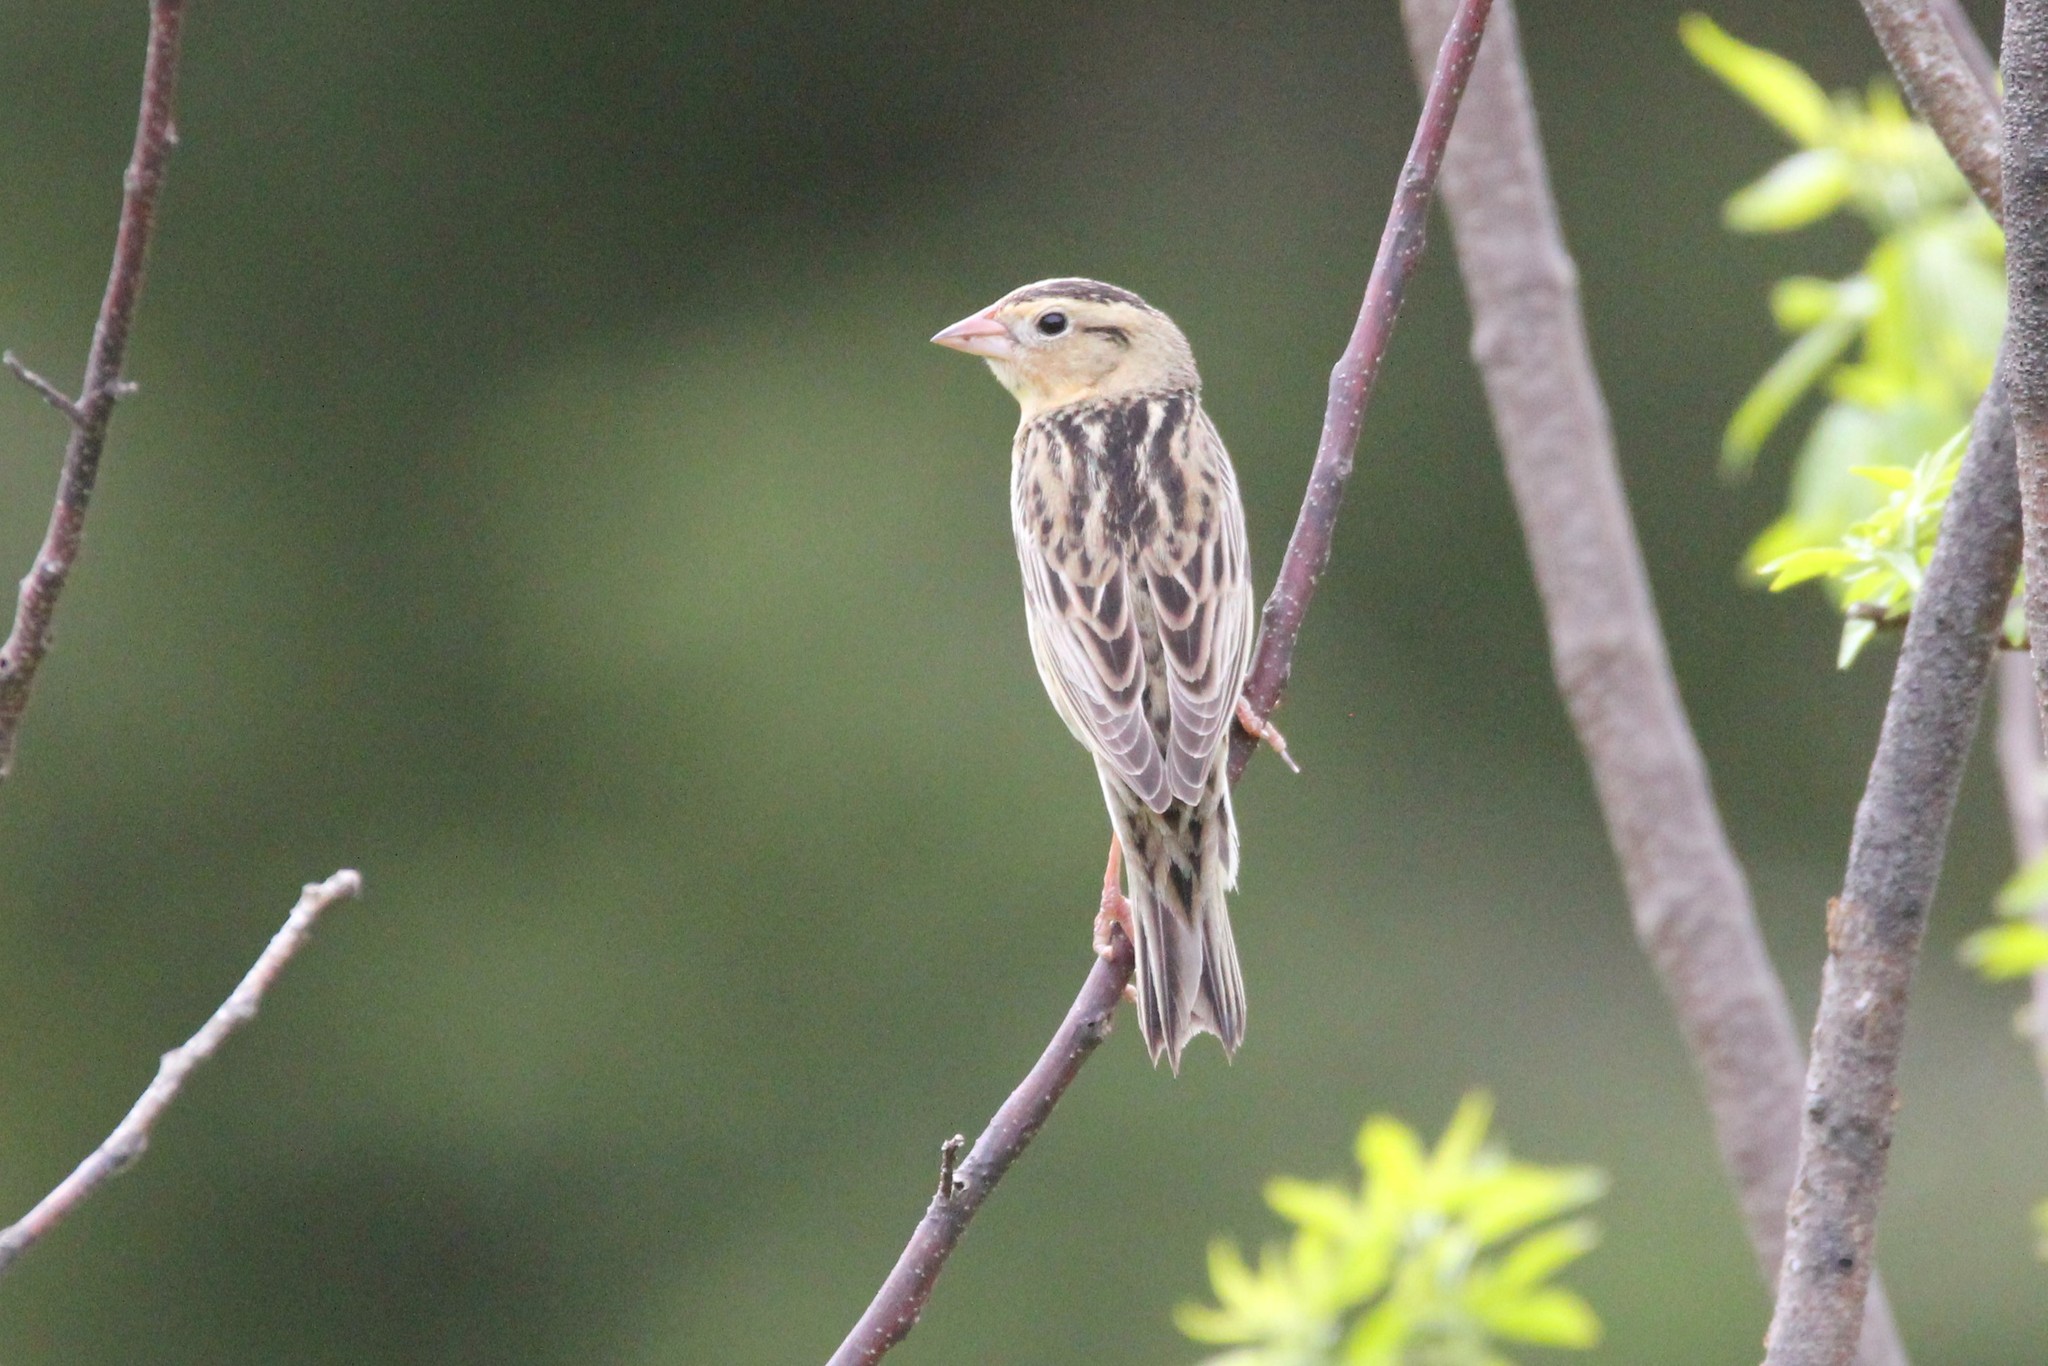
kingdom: Animalia
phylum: Chordata
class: Aves
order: Passeriformes
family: Icteridae
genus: Dolichonyx
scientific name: Dolichonyx oryzivorus
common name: Bobolink
